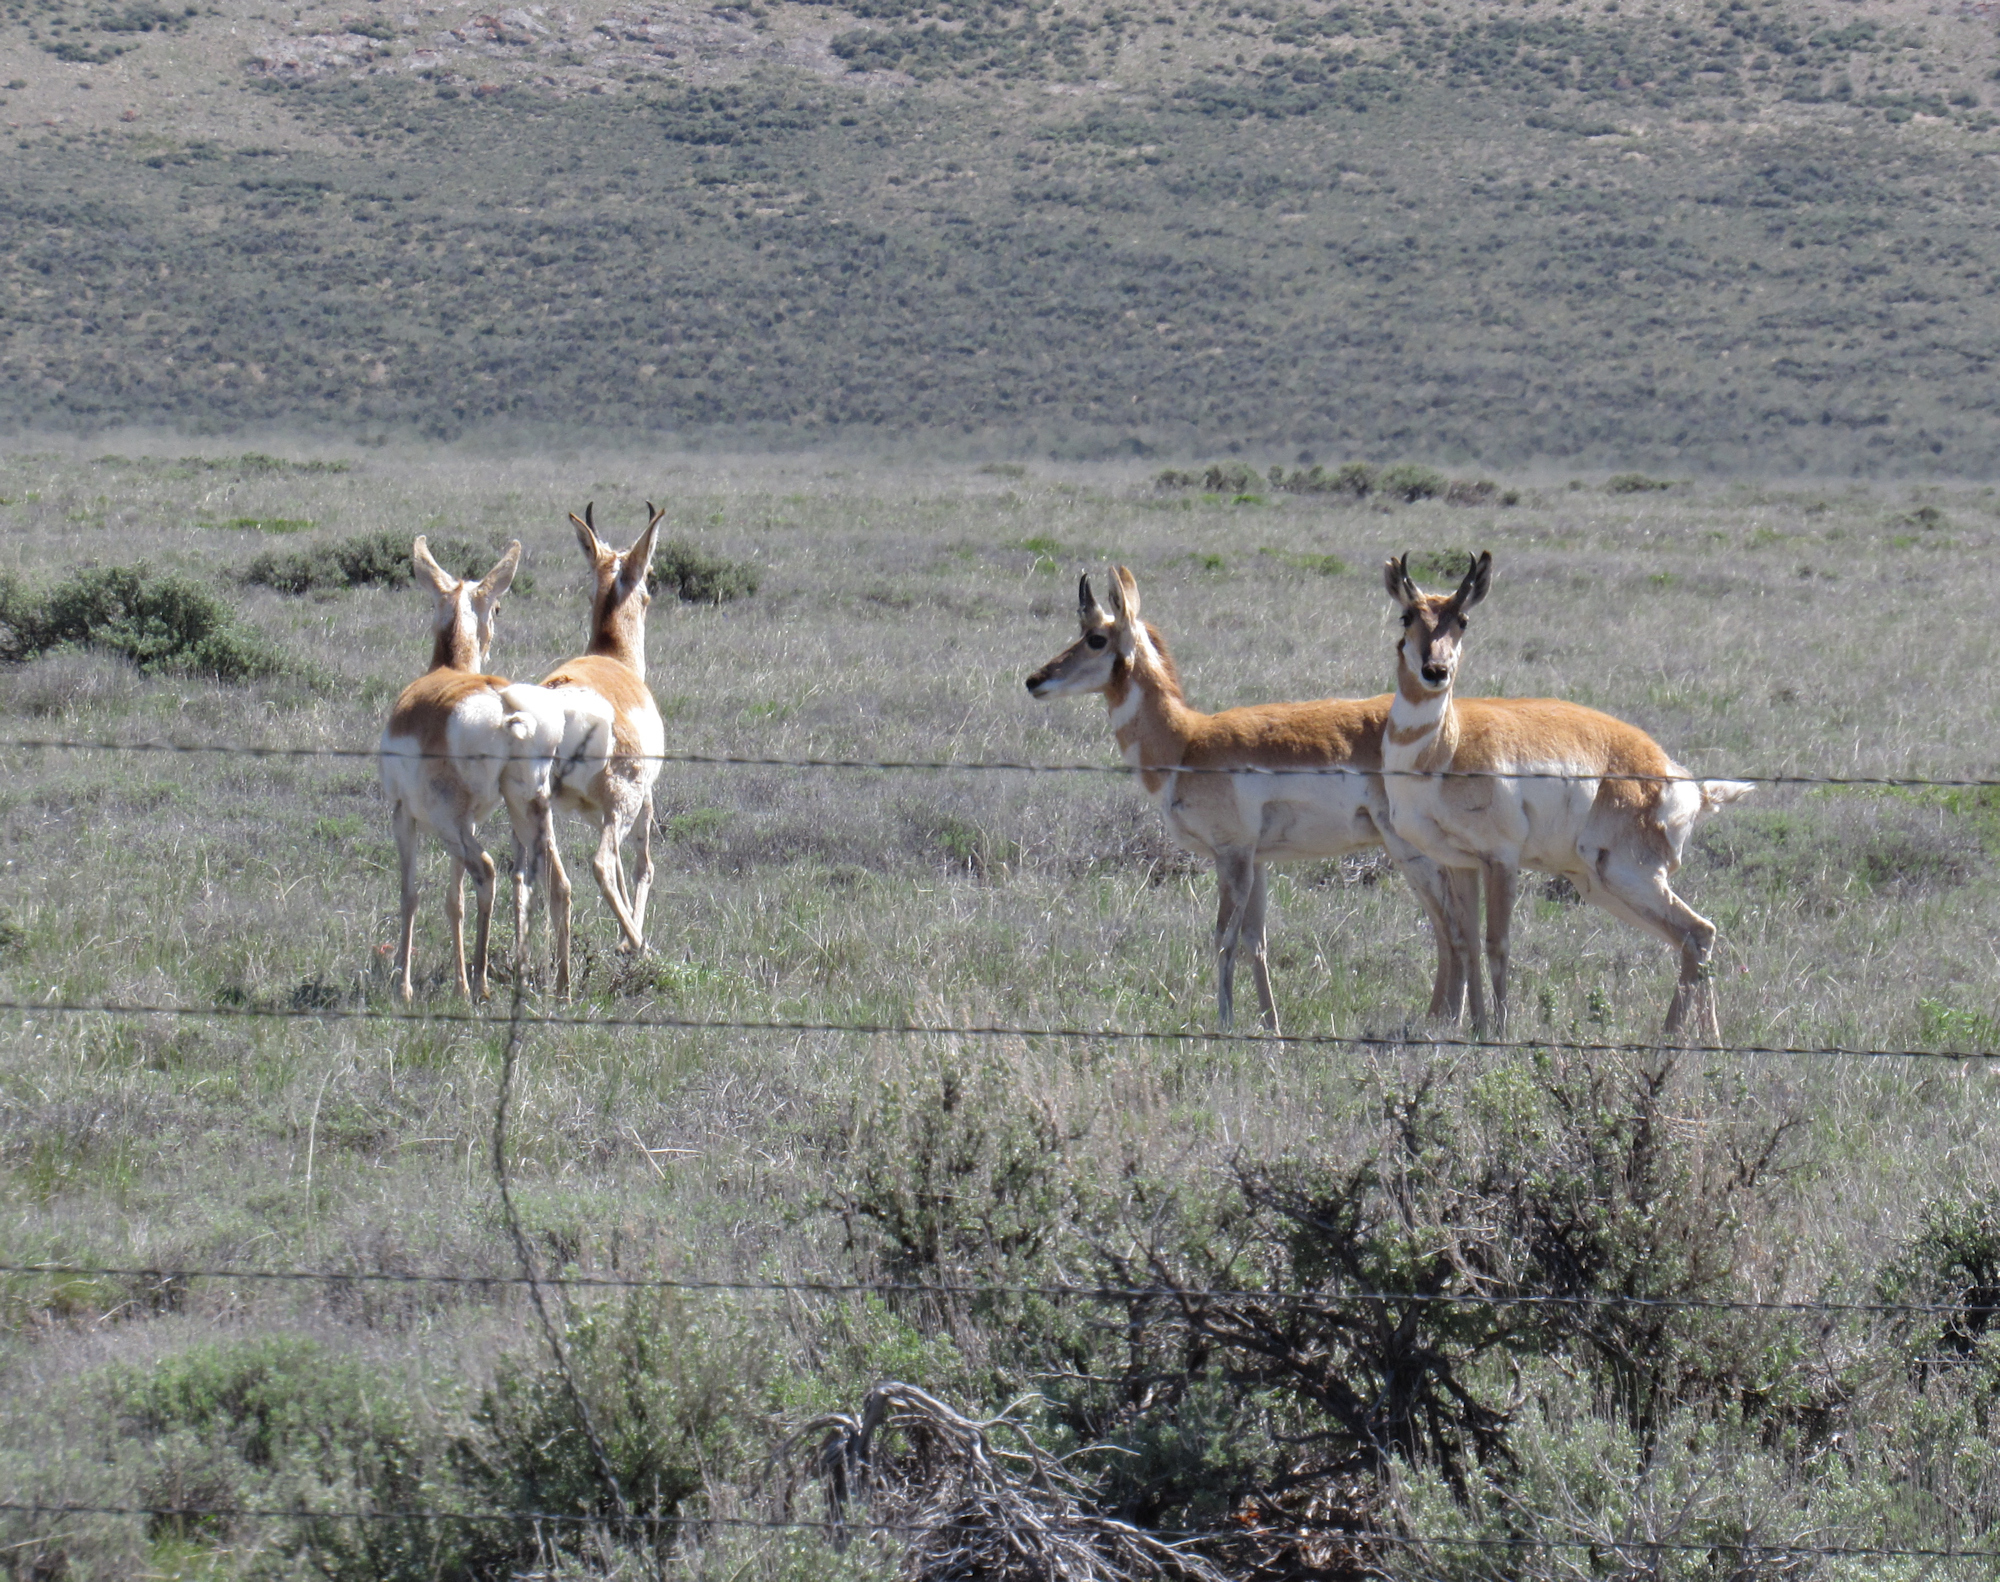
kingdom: Animalia
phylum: Chordata
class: Mammalia
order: Artiodactyla
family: Antilocapridae
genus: Antilocapra
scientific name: Antilocapra americana
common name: Pronghorn
